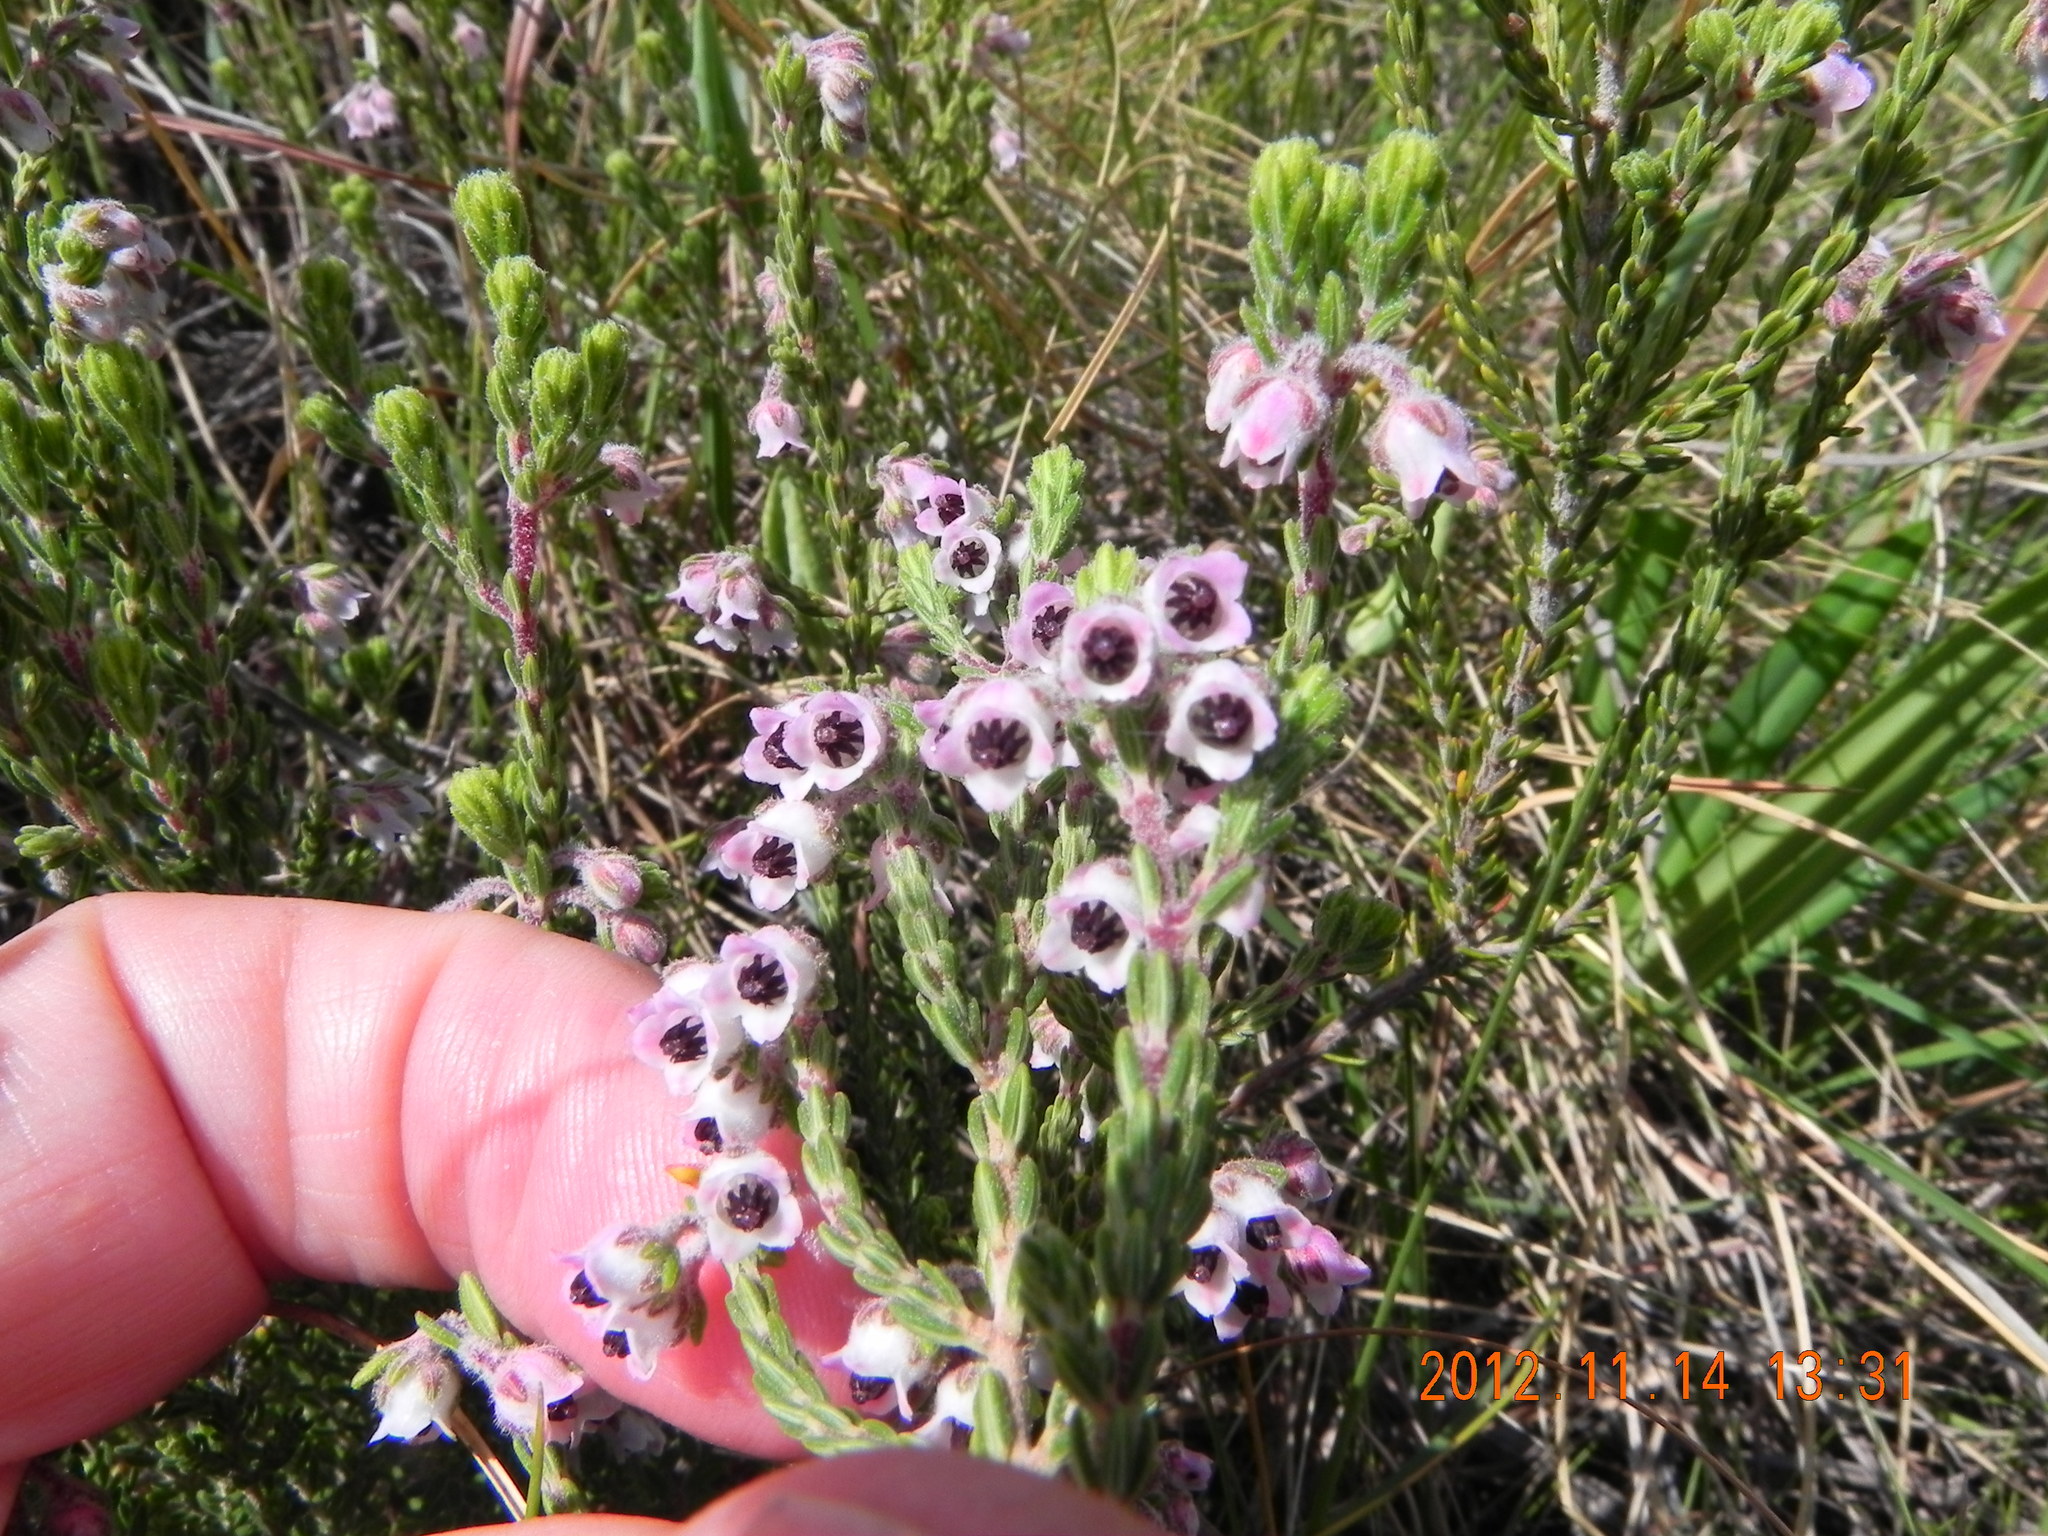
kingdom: Plantae
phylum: Tracheophyta
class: Magnoliopsida
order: Ericales
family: Ericaceae
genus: Erica
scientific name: Erica algida
